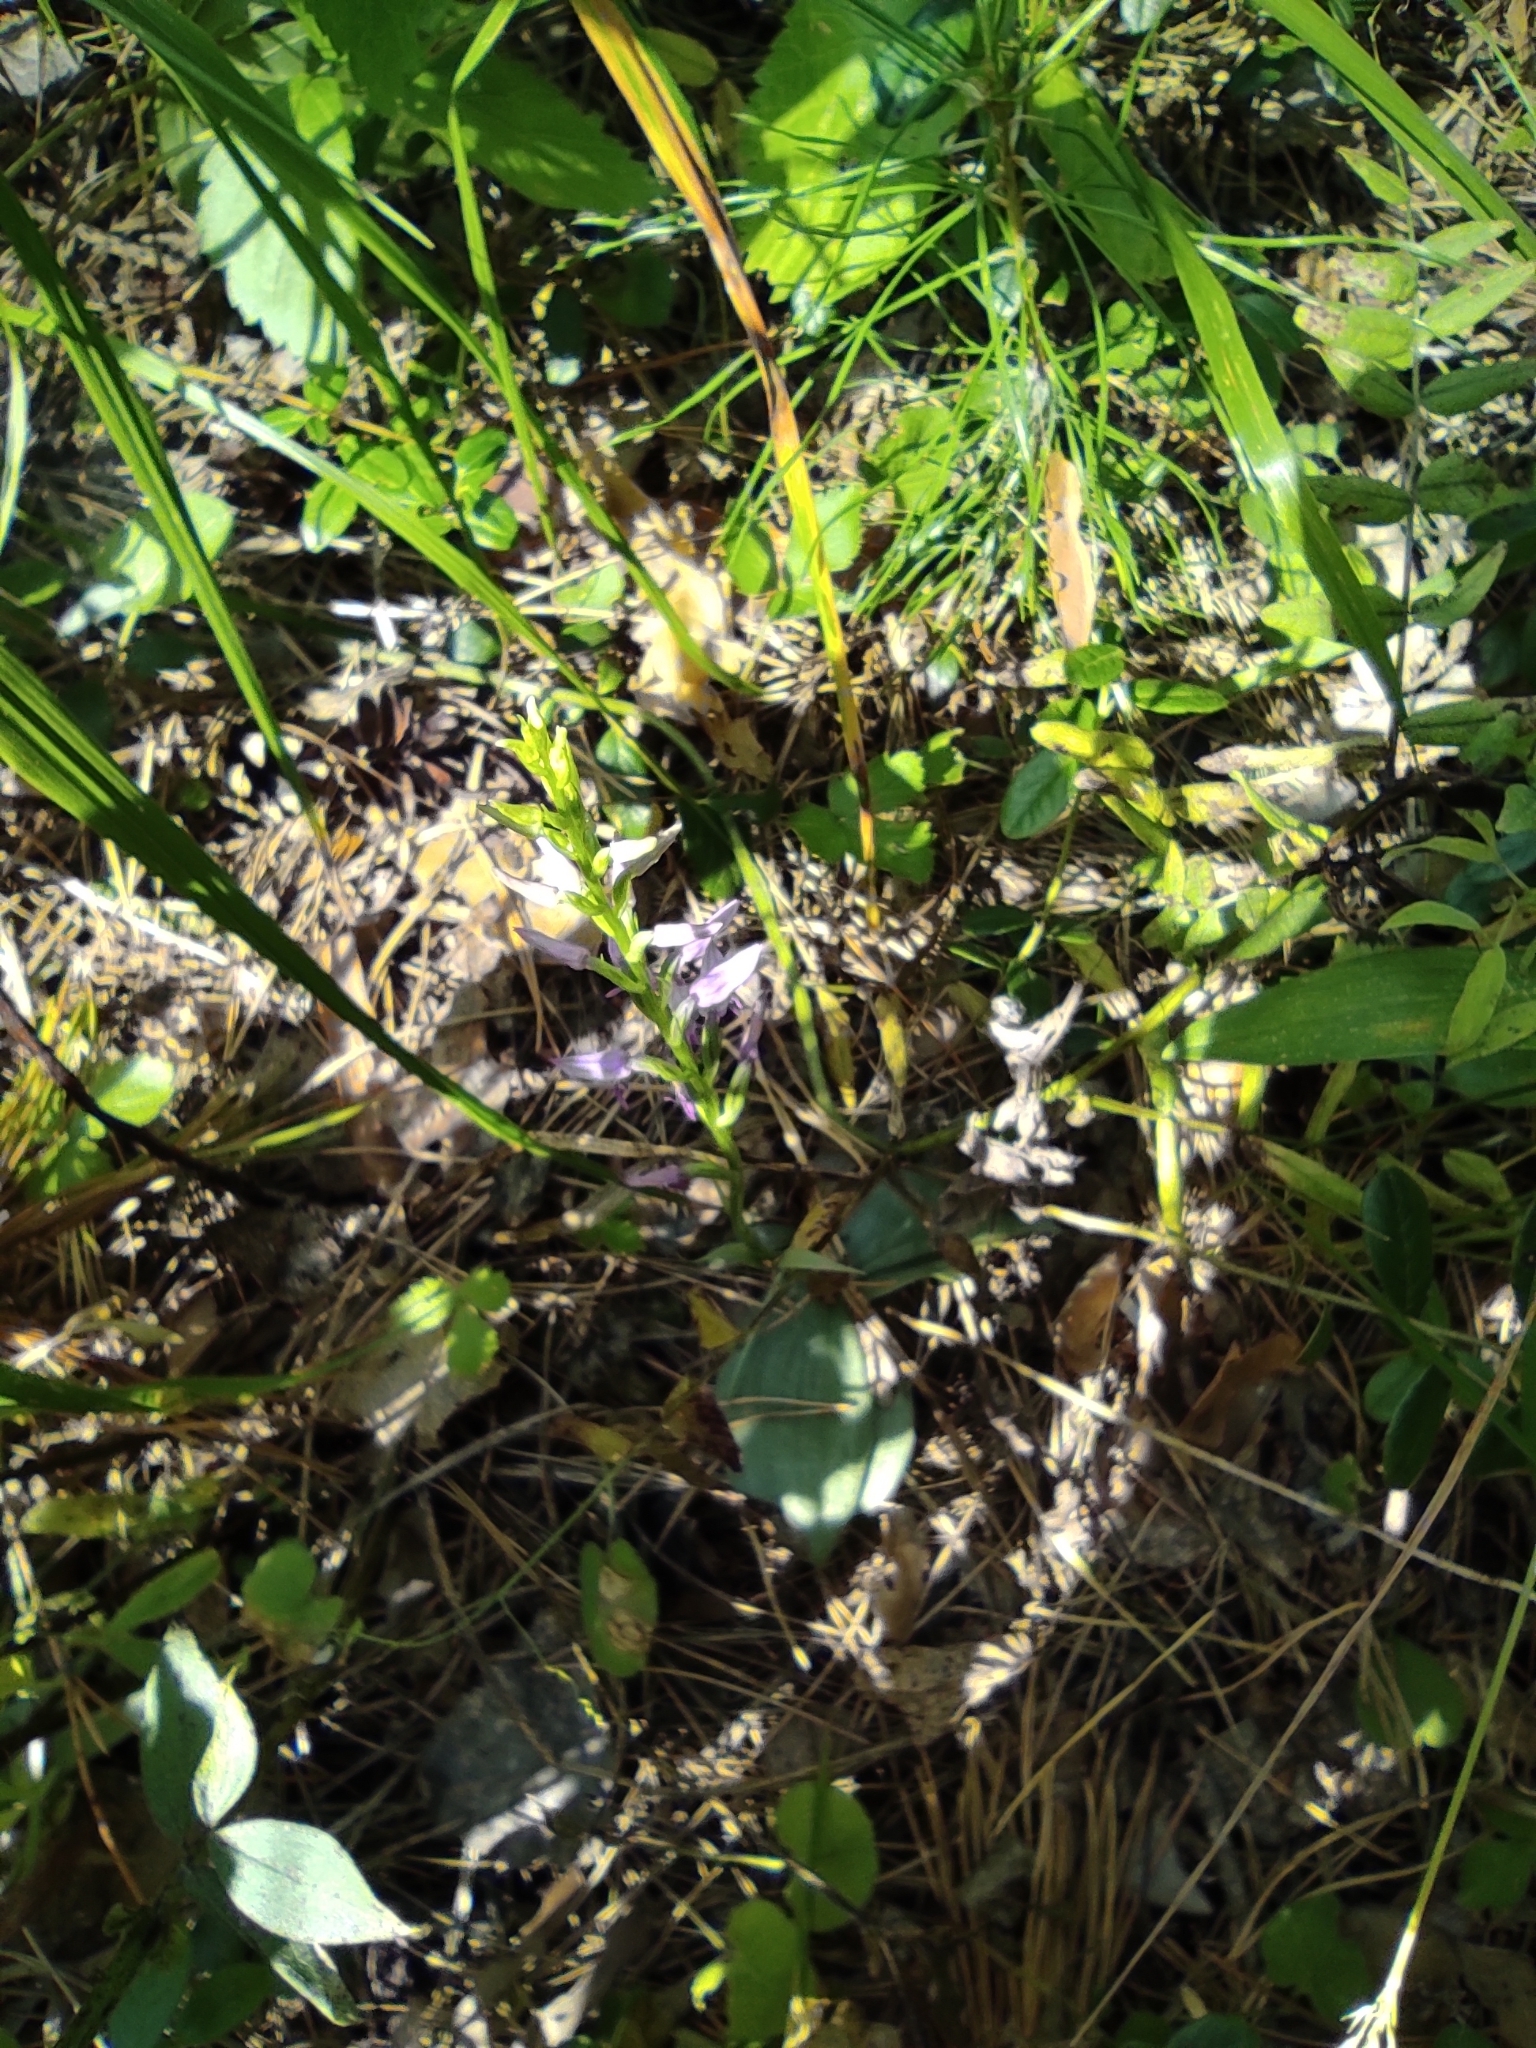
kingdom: Plantae
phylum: Tracheophyta
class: Liliopsida
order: Asparagales
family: Orchidaceae
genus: Hemipilia
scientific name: Hemipilia cucullata
